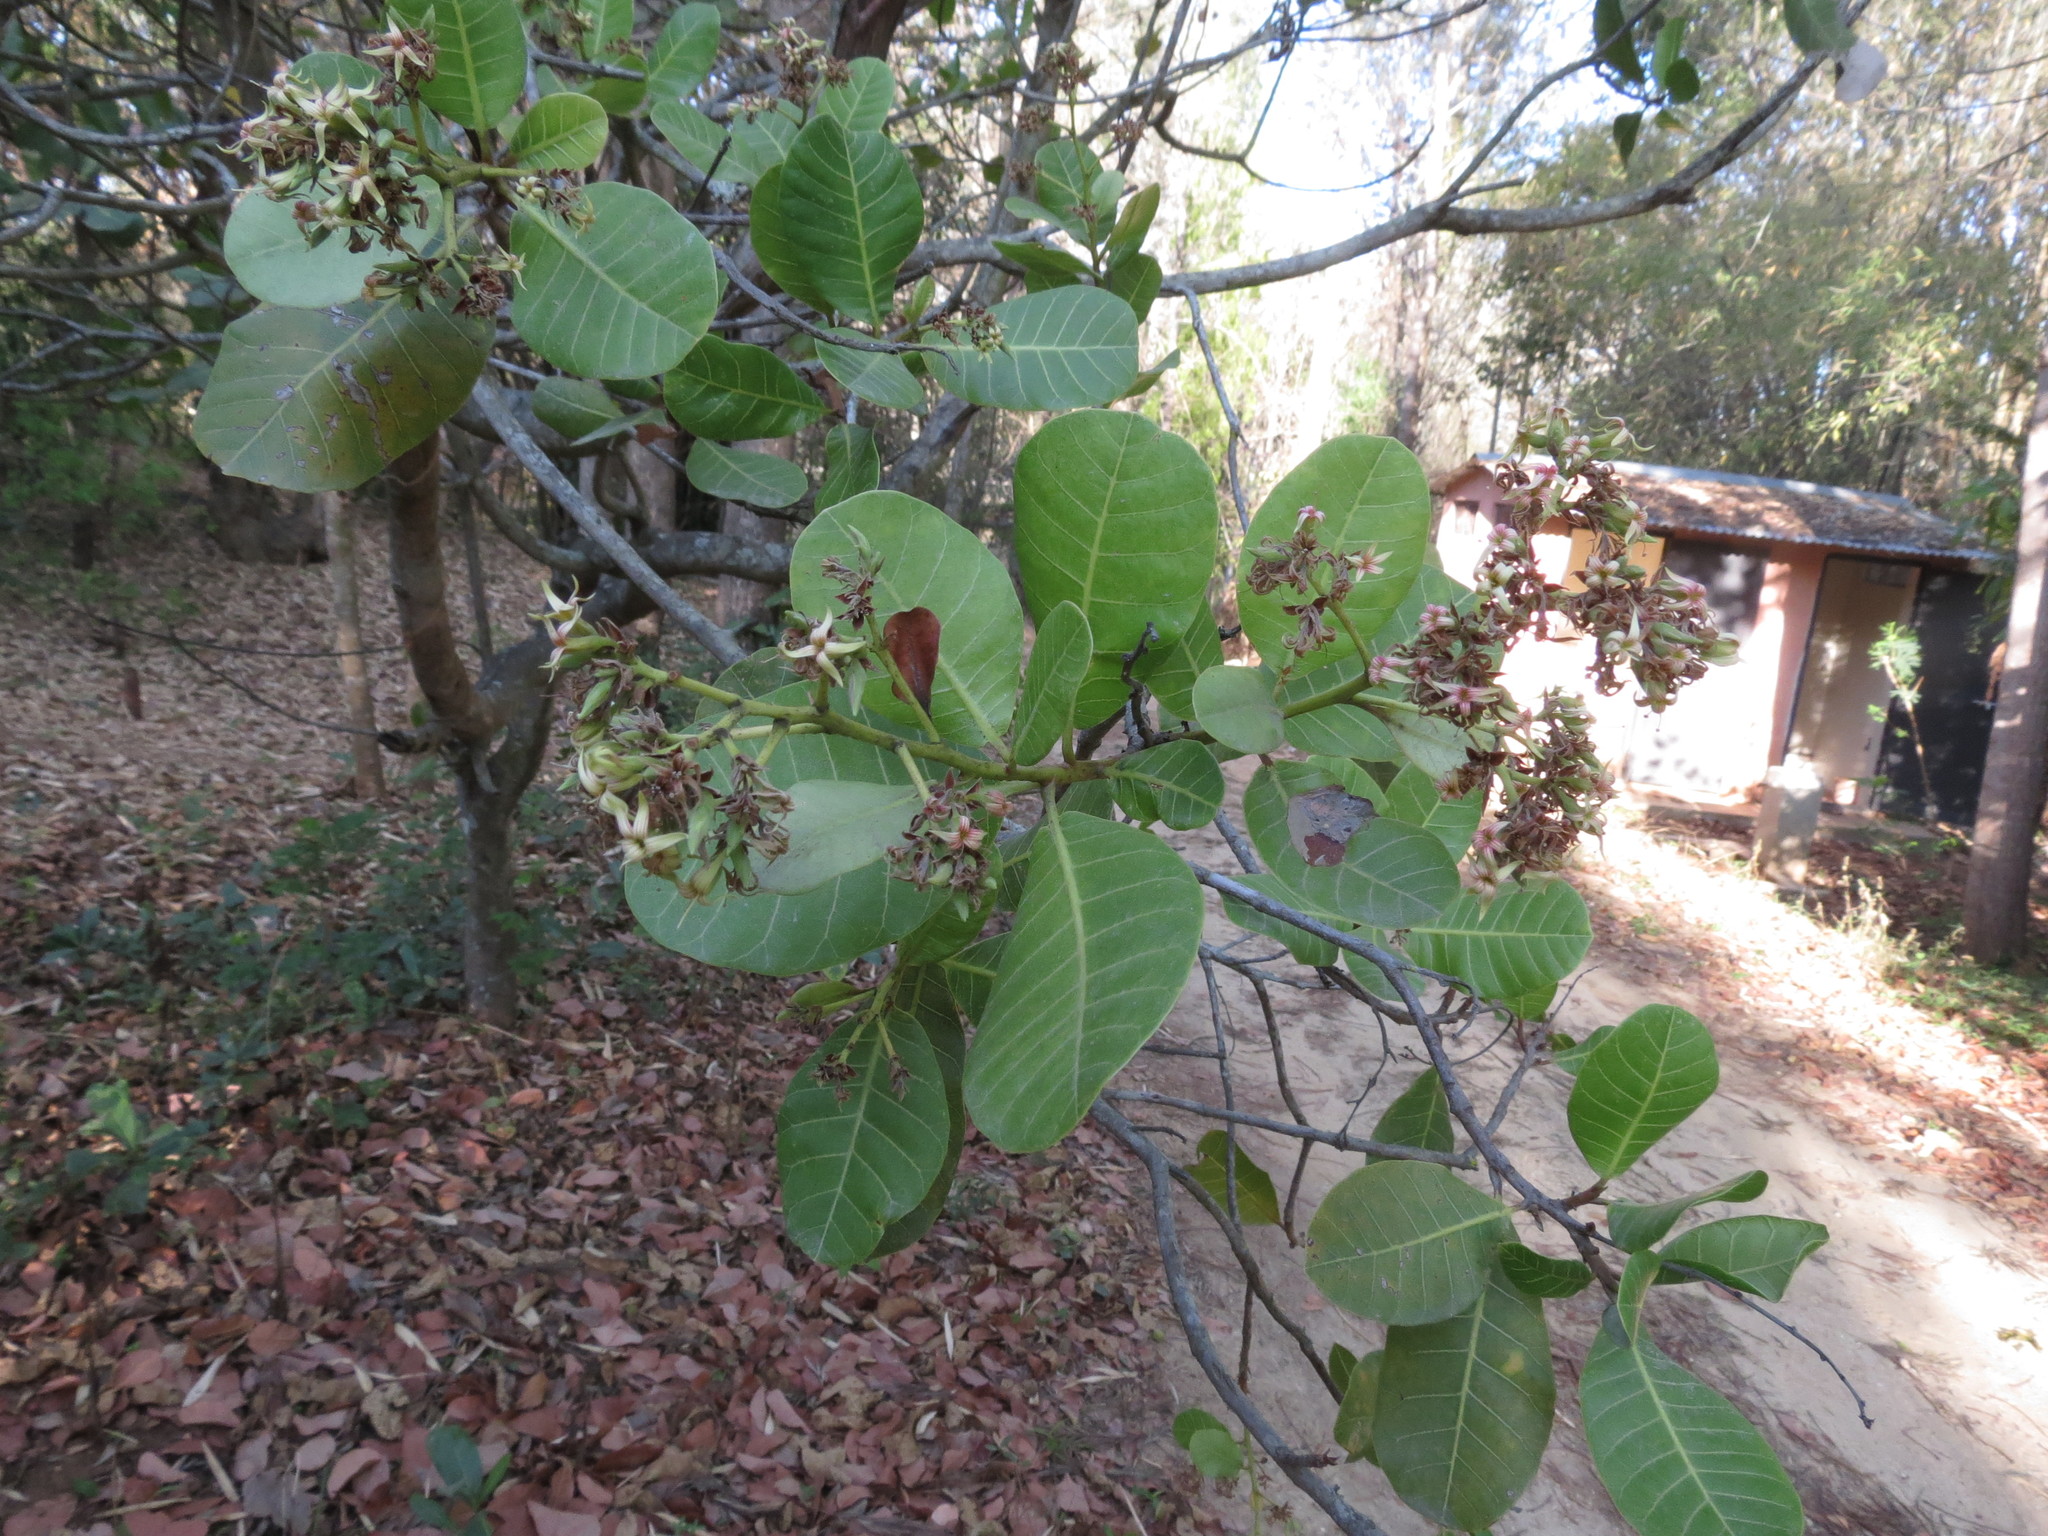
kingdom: Plantae
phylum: Tracheophyta
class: Magnoliopsida
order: Sapindales
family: Anacardiaceae
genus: Anacardium
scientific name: Anacardium occidentale
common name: Cashew
